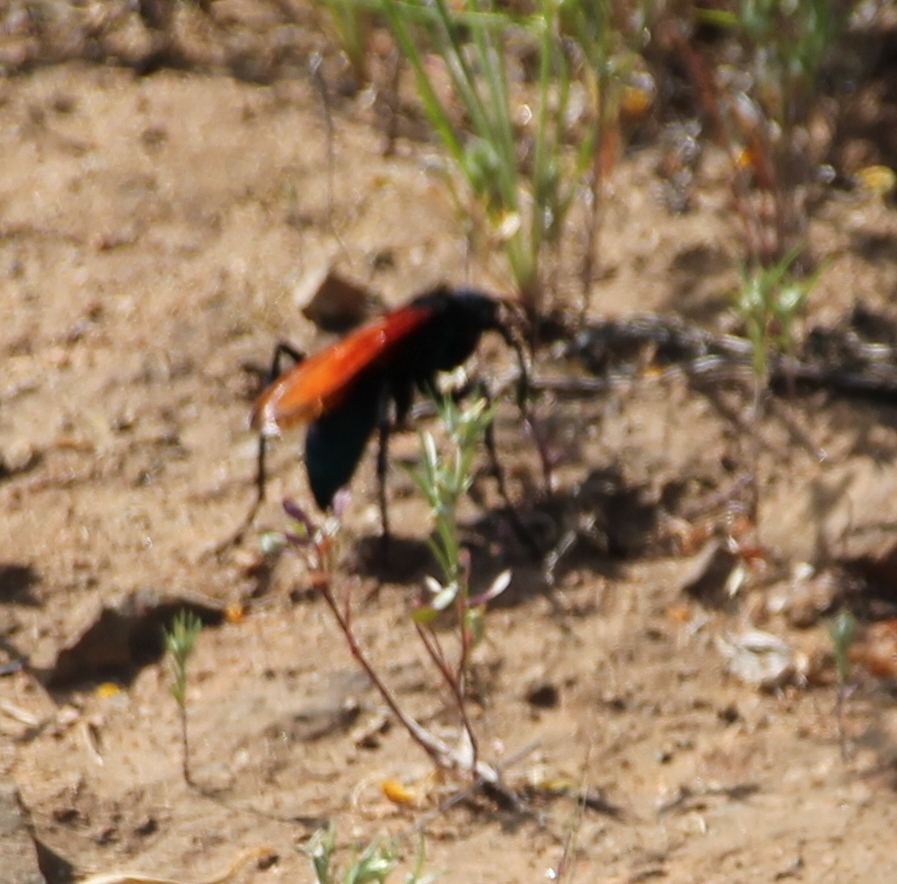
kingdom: Animalia
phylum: Arthropoda
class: Insecta
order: Hymenoptera
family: Pompilidae
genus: Pepsis
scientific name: Pepsis thisbe
